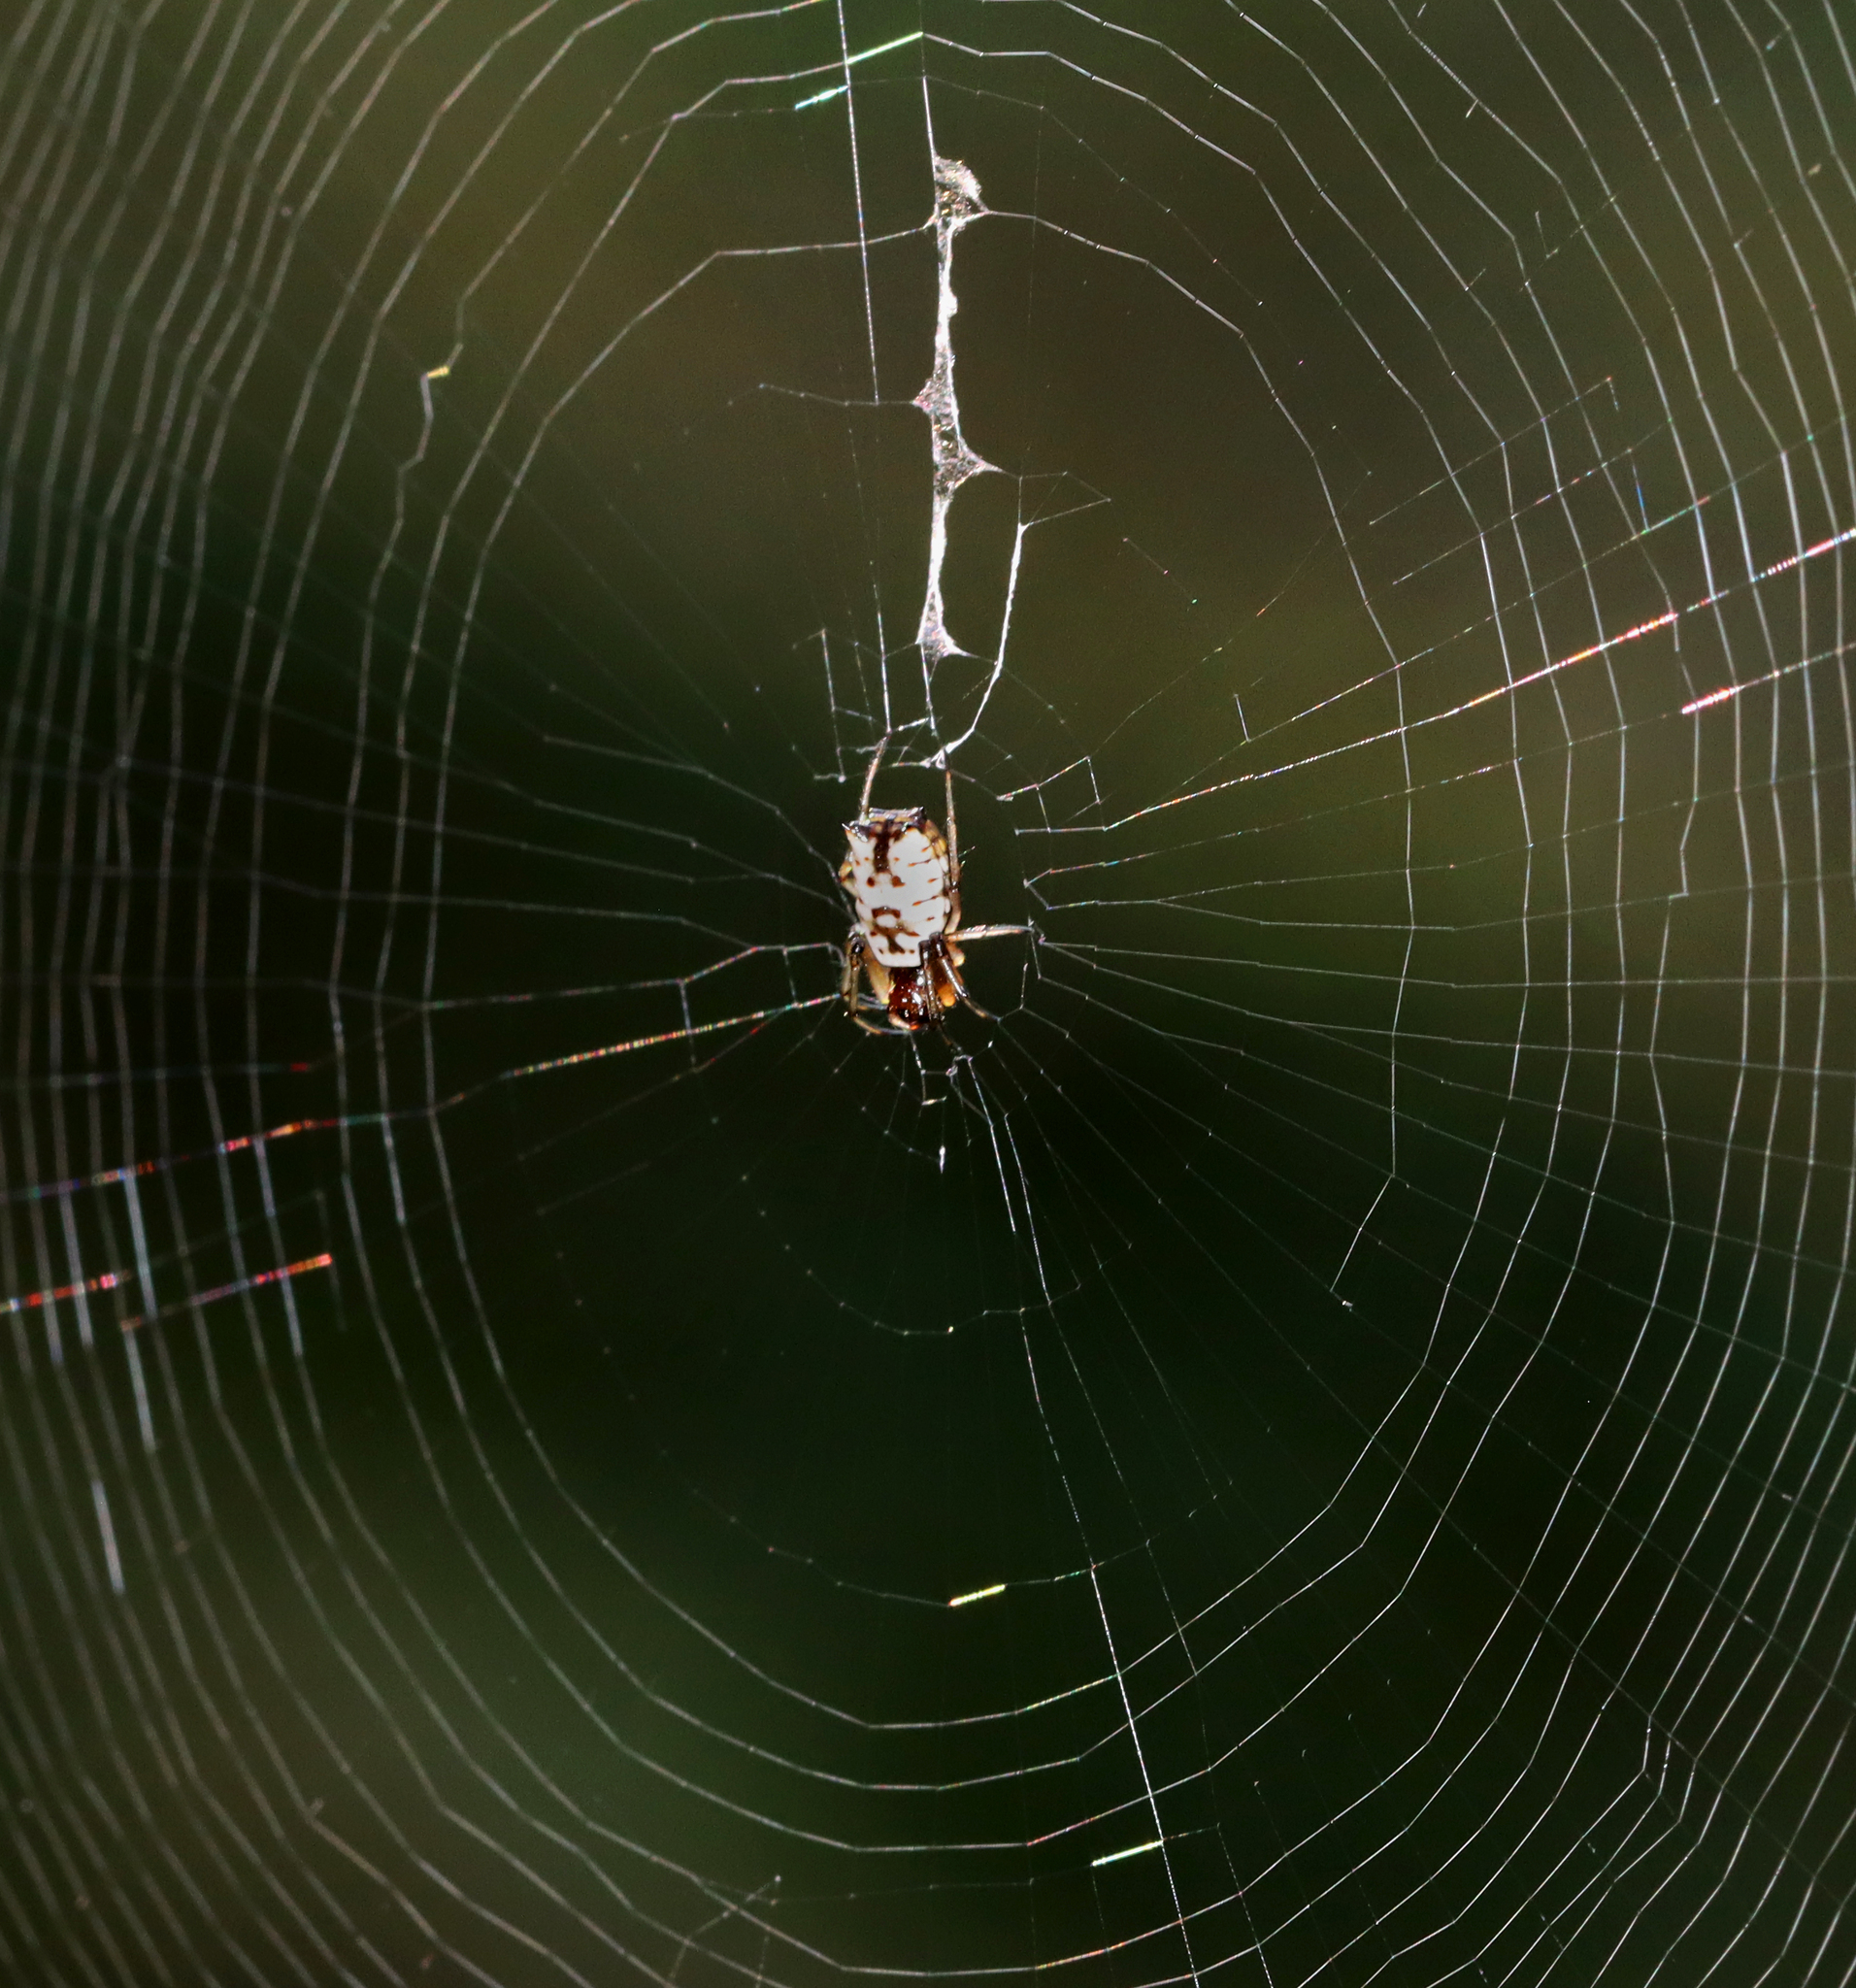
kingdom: Animalia
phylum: Arthropoda
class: Arachnida
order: Araneae
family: Araneidae
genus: Micrathena
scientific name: Micrathena mitrata
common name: Orb weavers
